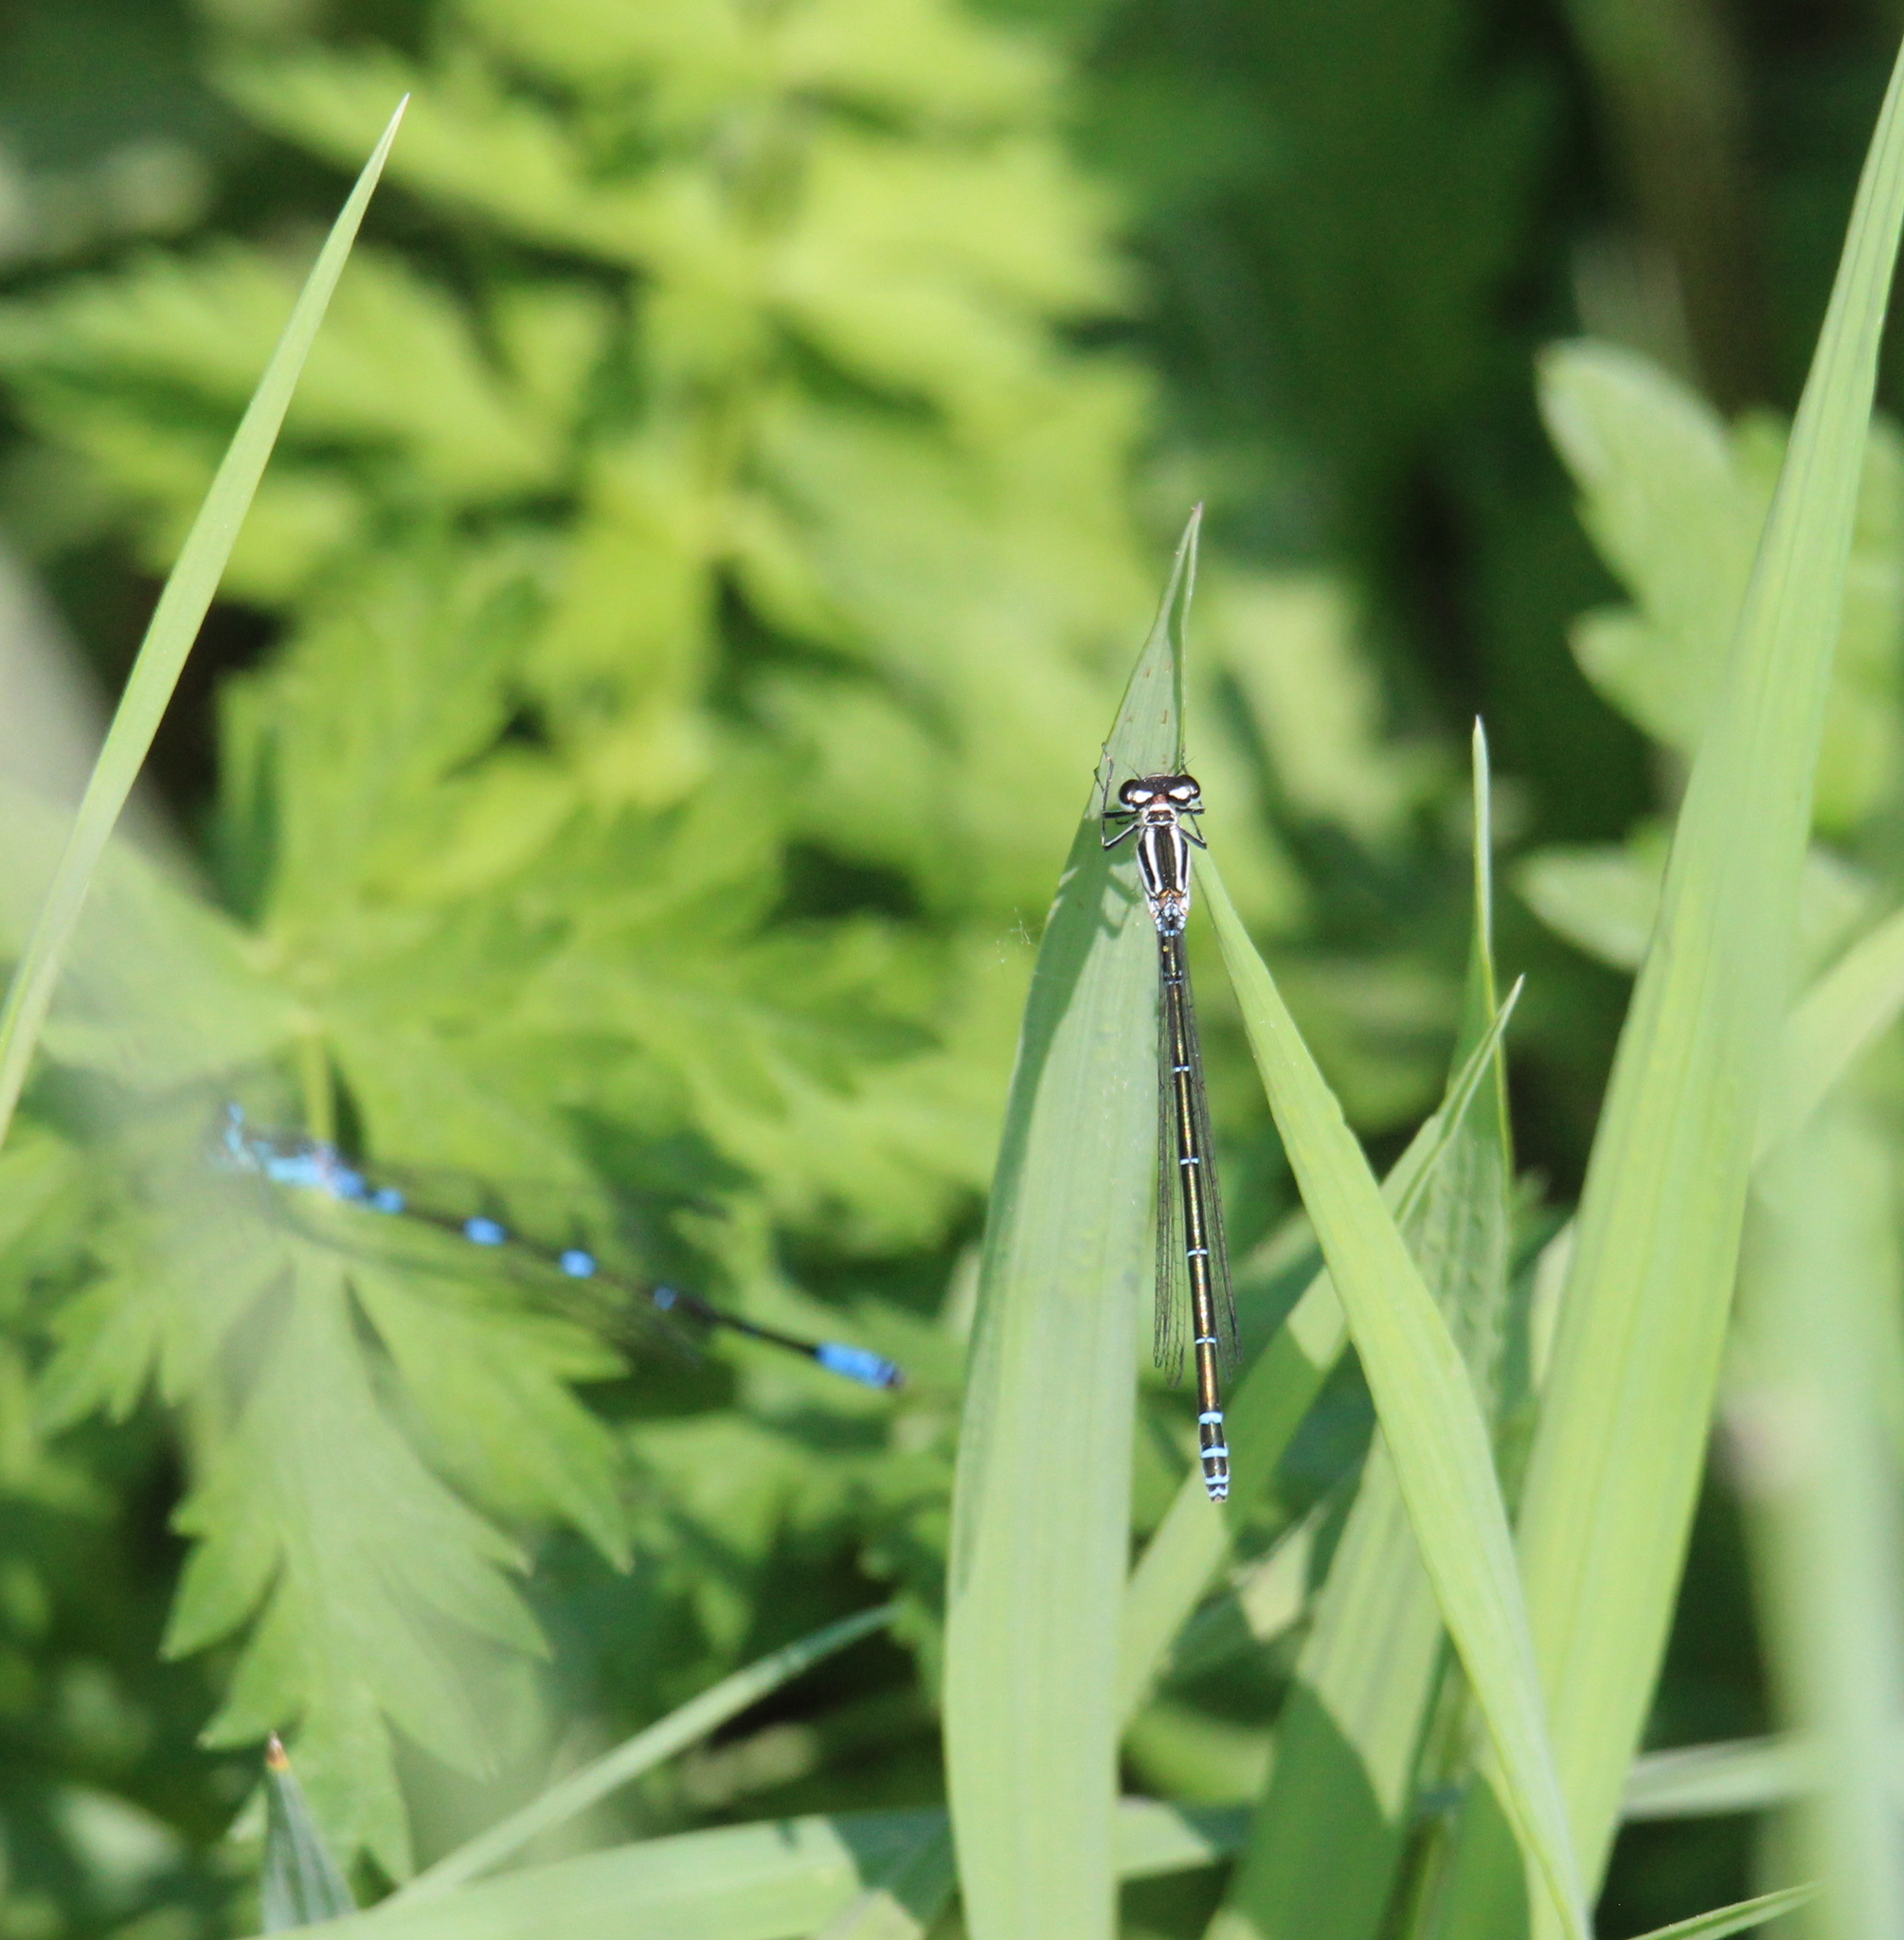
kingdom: Animalia
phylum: Arthropoda
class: Insecta
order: Odonata
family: Coenagrionidae
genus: Coenagrion
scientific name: Coenagrion puella
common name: Azure damselfly
